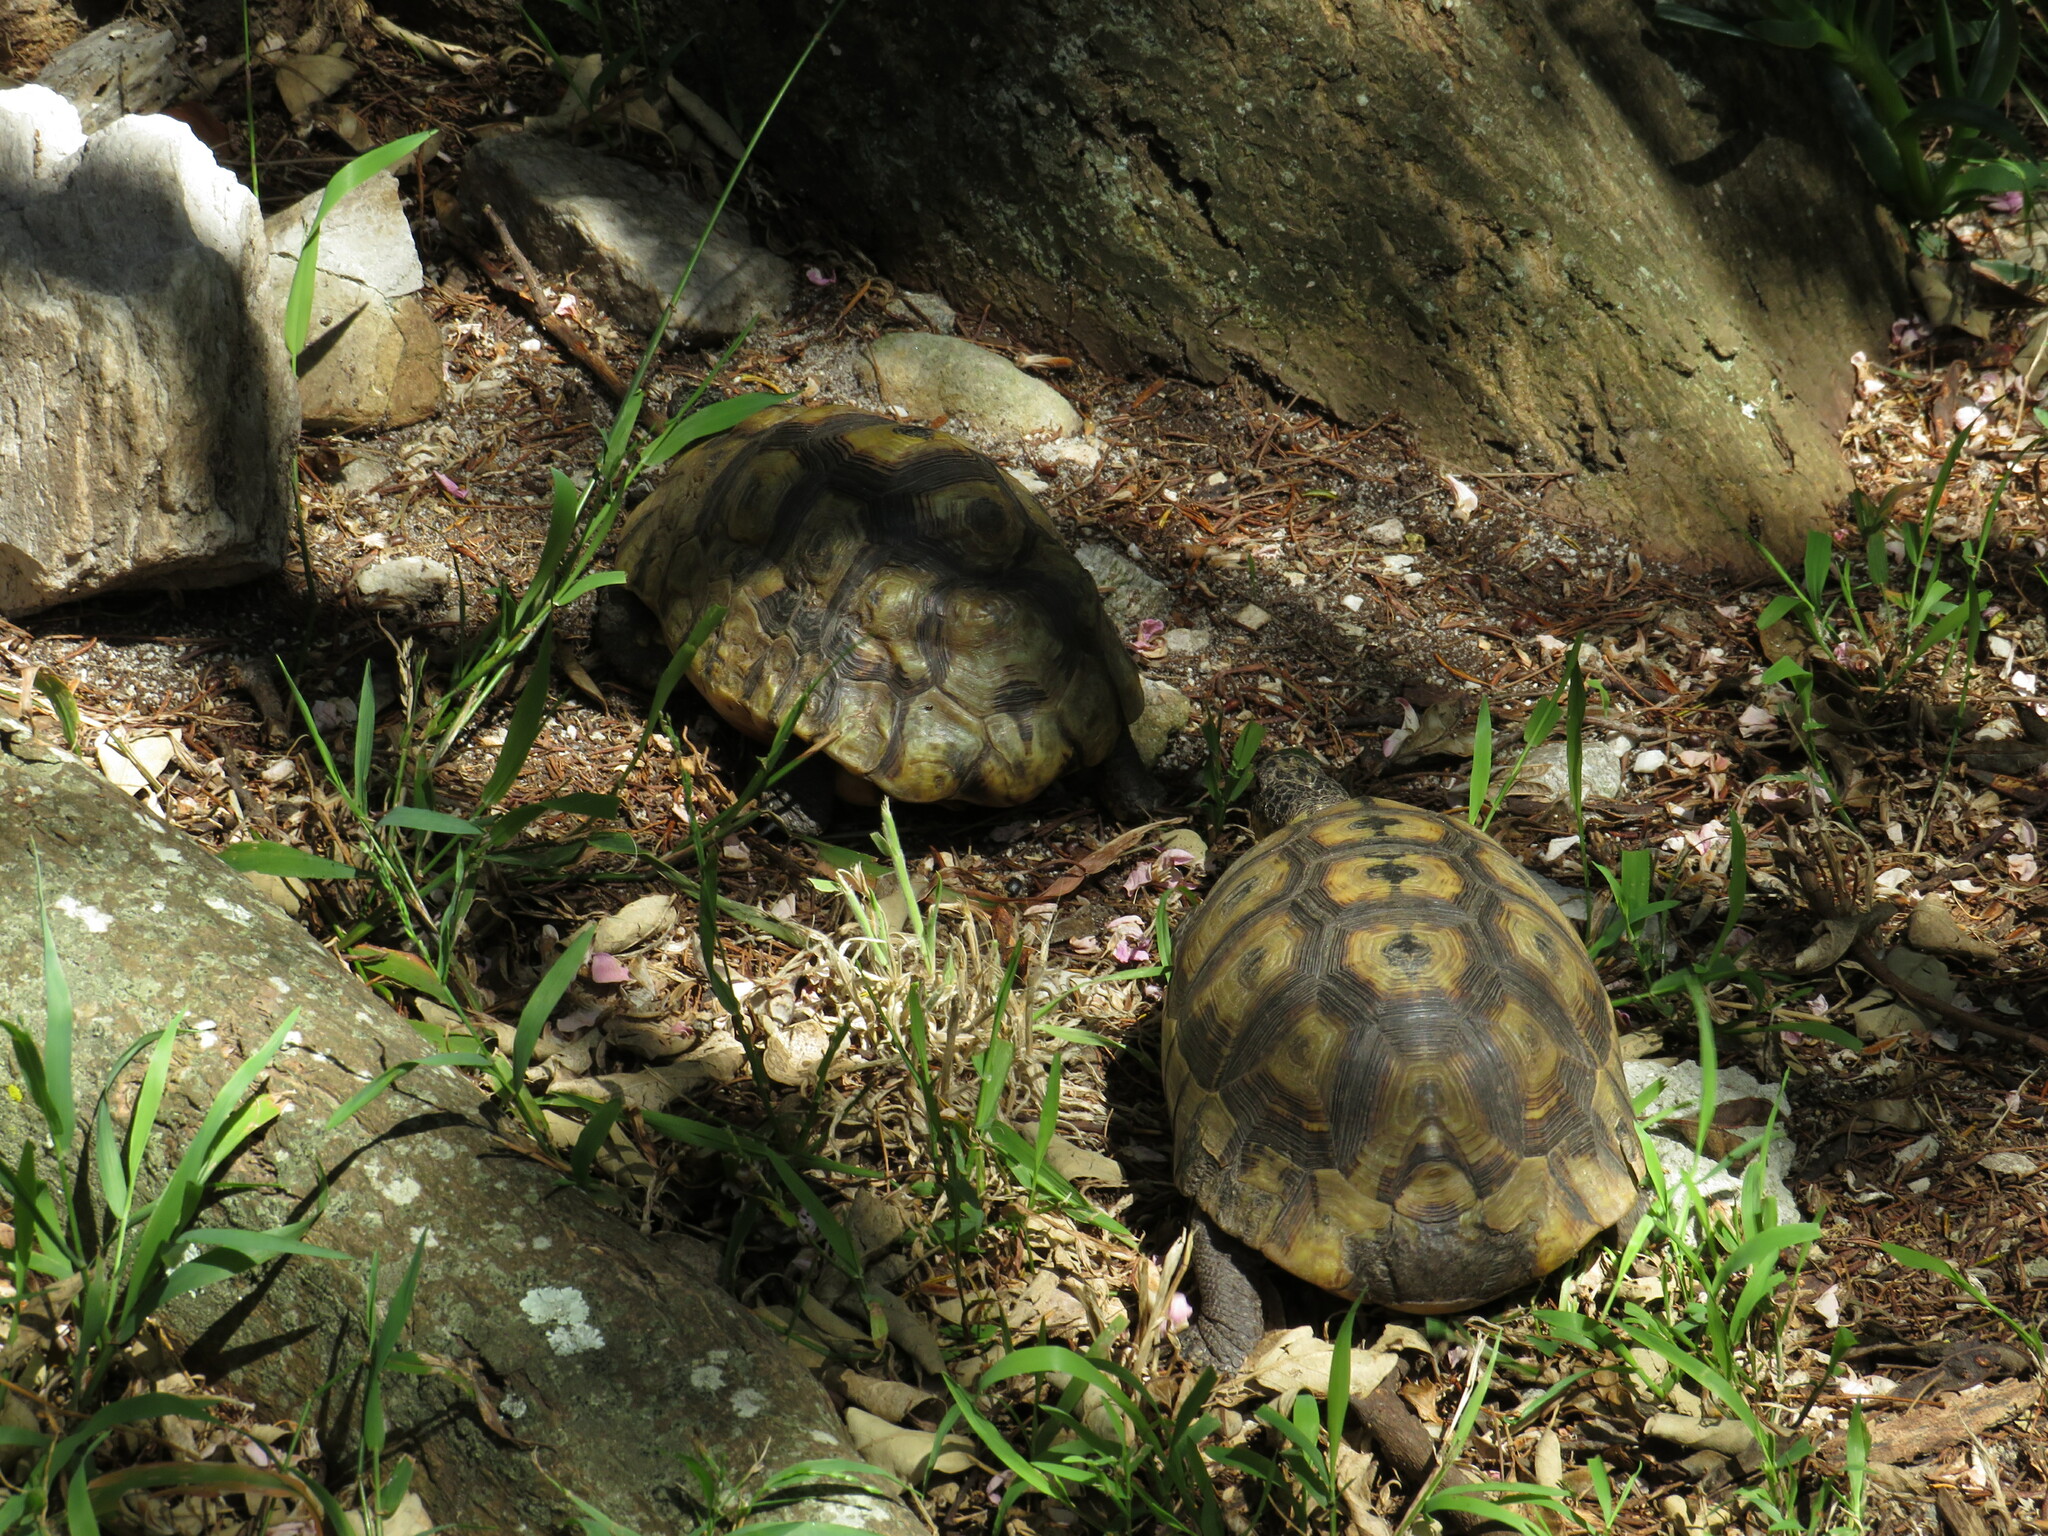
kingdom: Animalia
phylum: Chordata
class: Testudines
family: Testudinidae
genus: Chersina
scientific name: Chersina angulata
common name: South african bowsprit tortoise
